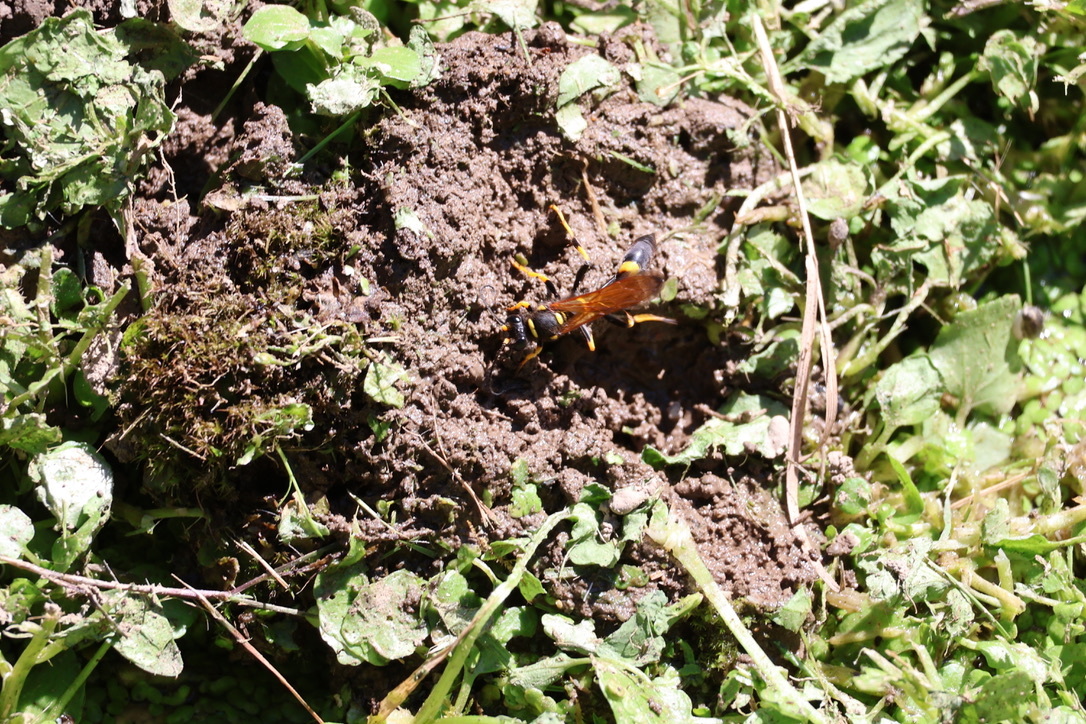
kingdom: Animalia
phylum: Arthropoda
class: Insecta
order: Hymenoptera
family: Sphecidae
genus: Sceliphron
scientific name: Sceliphron caementarium
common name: Mud dauber
